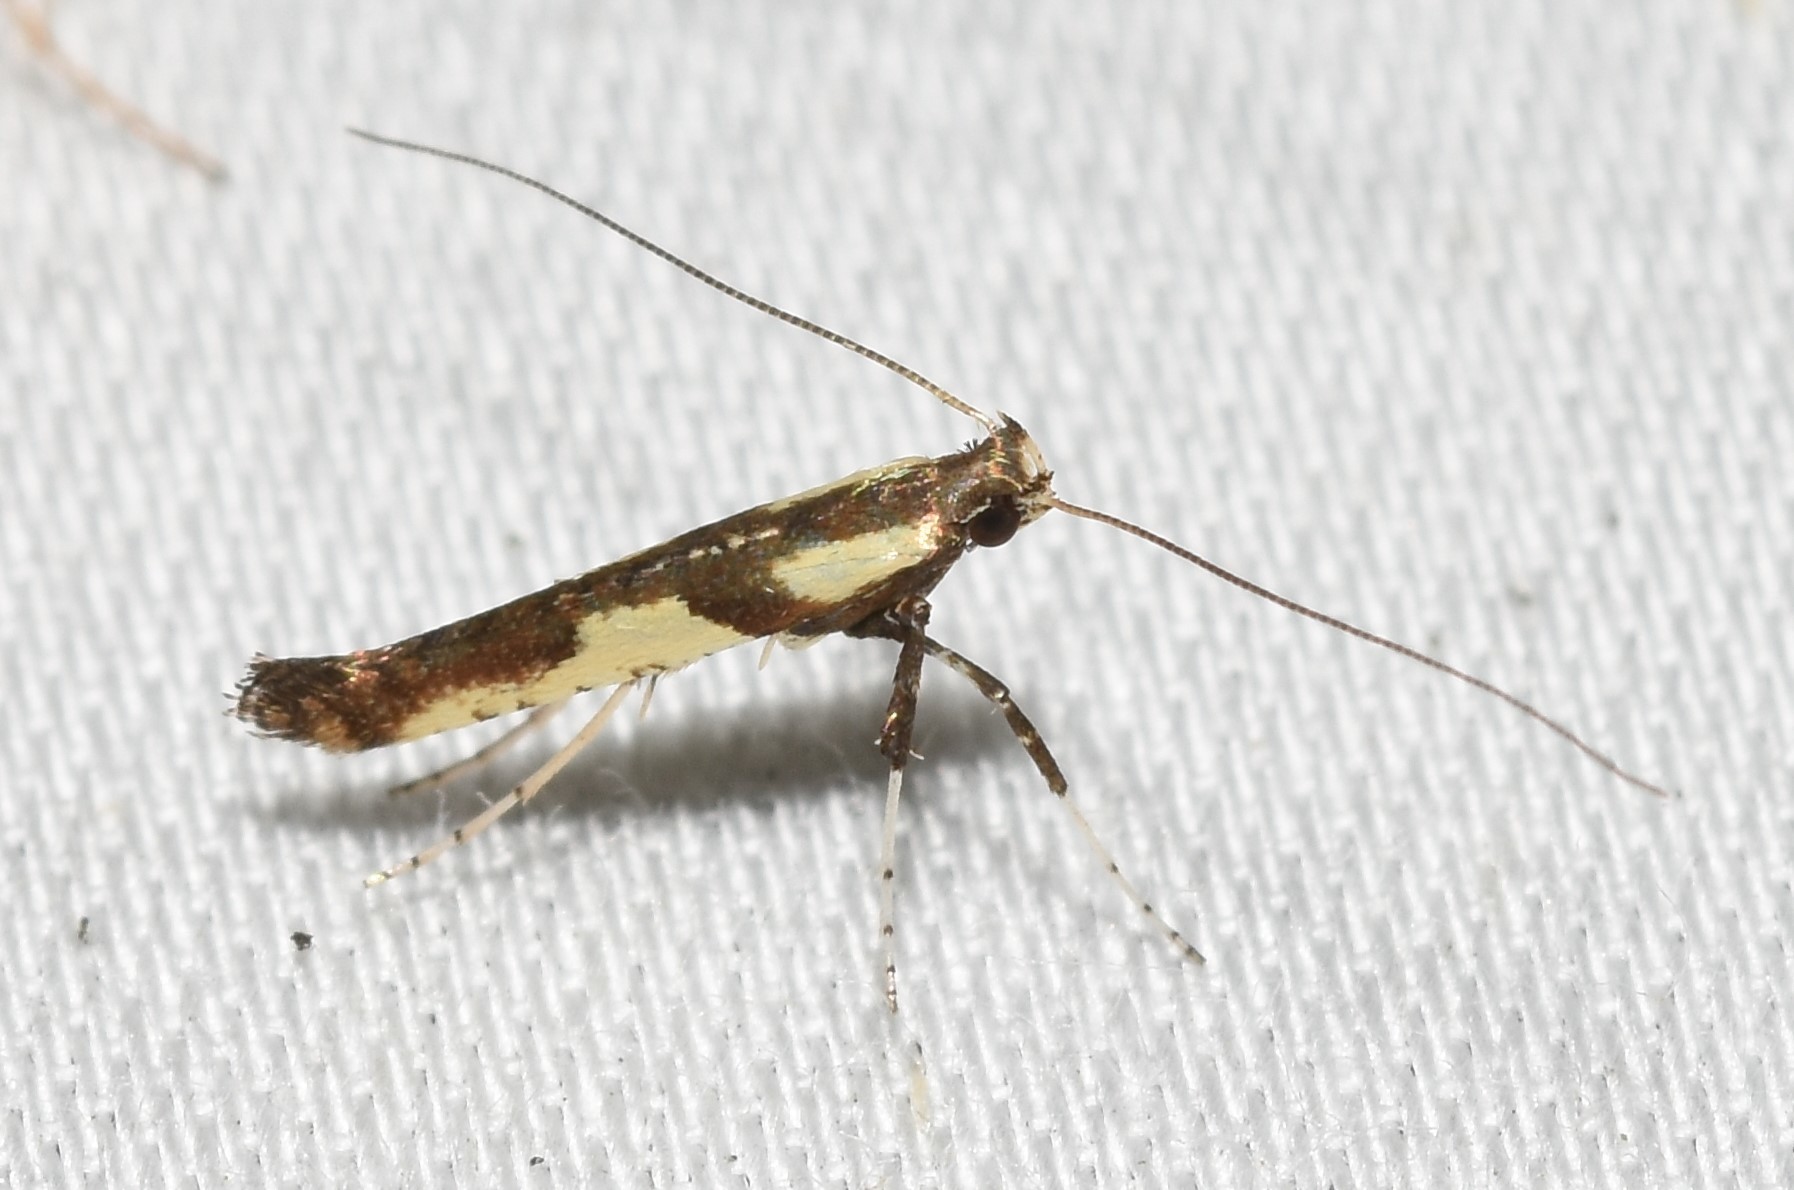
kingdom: Animalia
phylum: Arthropoda
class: Insecta
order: Lepidoptera
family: Gracillariidae
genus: Caloptilia
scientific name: Caloptilia blandella
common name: Walnut caloptilia moth
